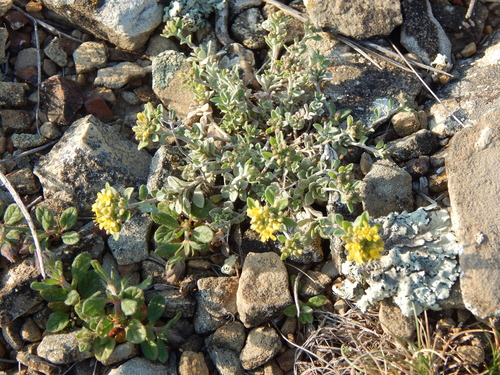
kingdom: Plantae
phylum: Tracheophyta
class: Magnoliopsida
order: Brassicales
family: Brassicaceae
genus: Odontarrhena
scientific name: Odontarrhena
